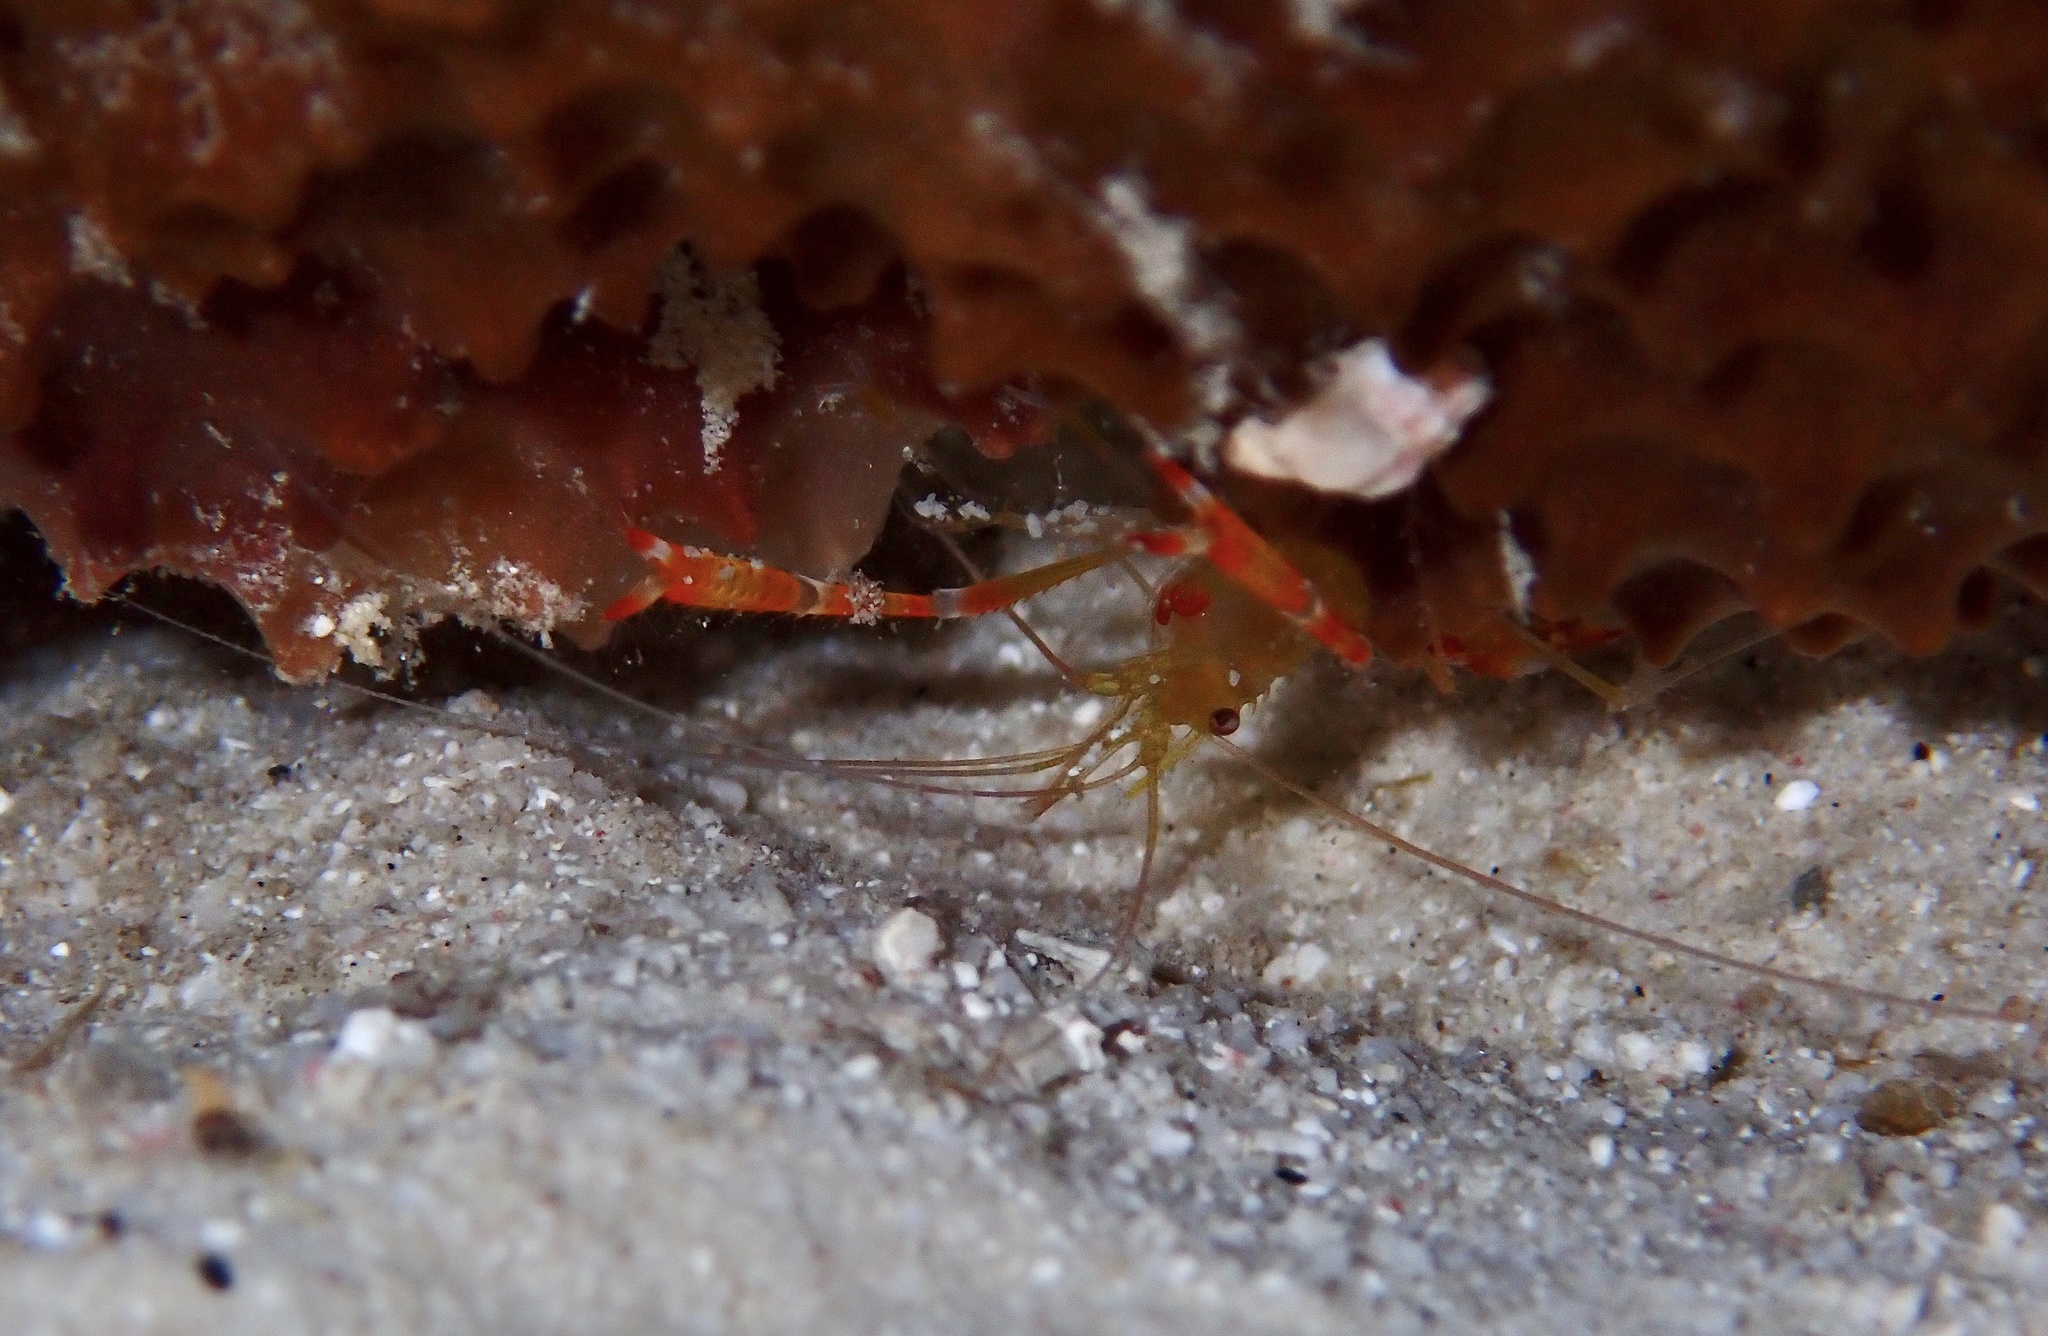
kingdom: Animalia
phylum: Arthropoda
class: Malacostraca
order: Decapoda
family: Stenopodidae
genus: Stenopus
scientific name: Stenopus scutellatus
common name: Golden coral shrimp
